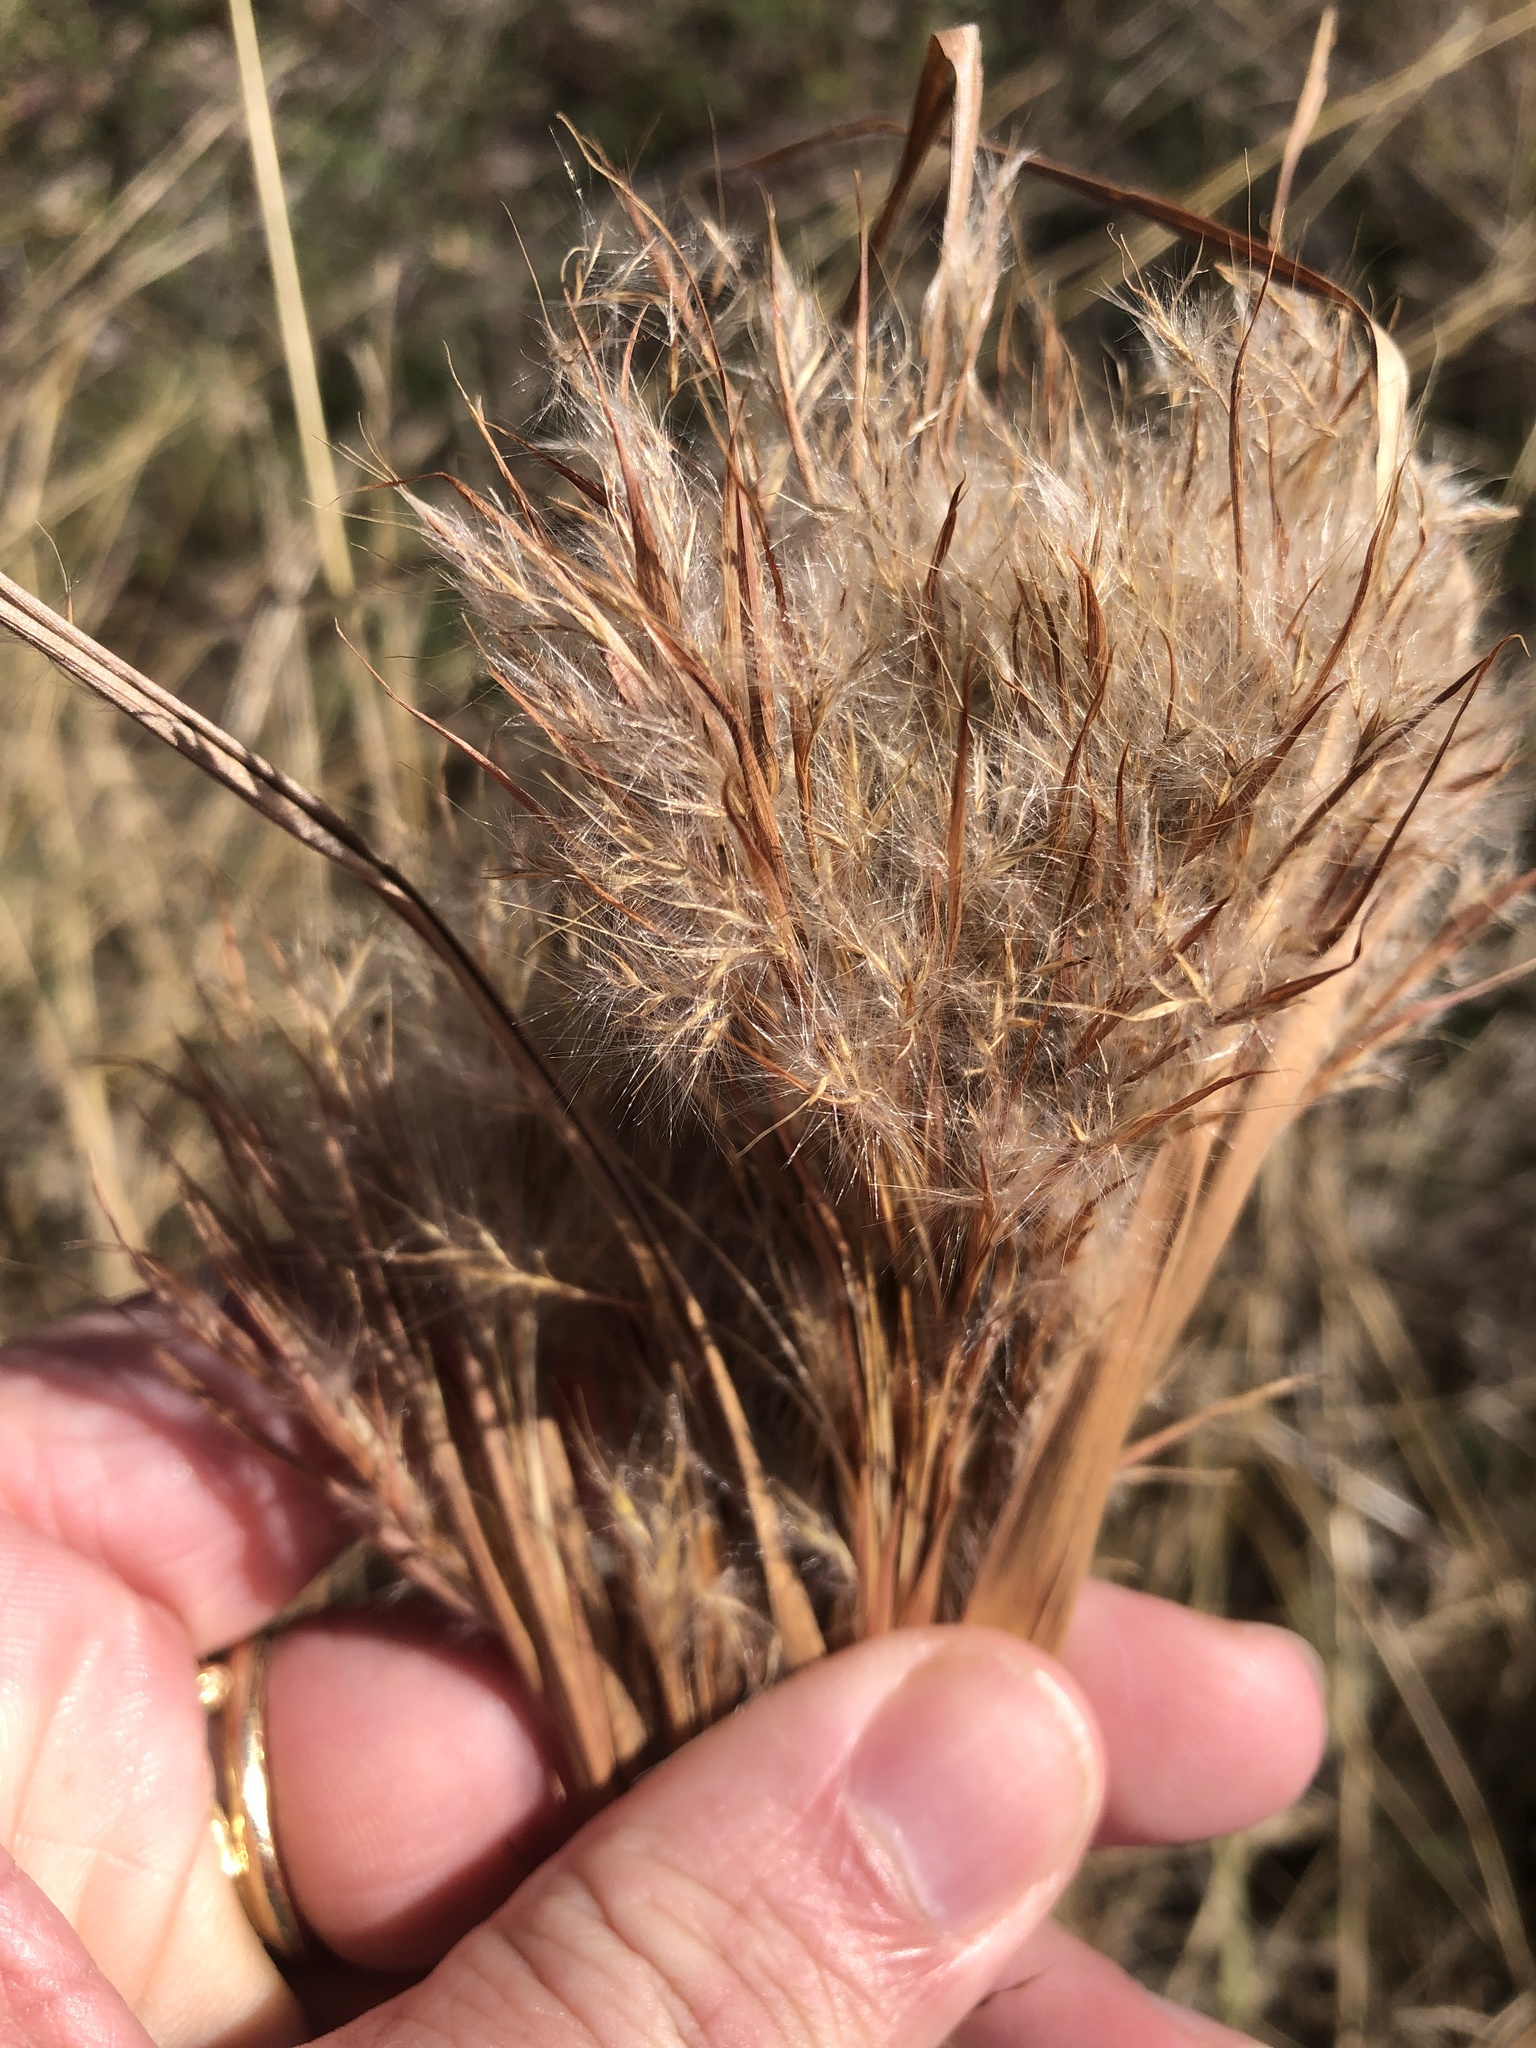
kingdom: Plantae
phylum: Tracheophyta
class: Liliopsida
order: Poales
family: Poaceae
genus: Andropogon
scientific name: Andropogon tenuispatheus
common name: Bushy bluestem
